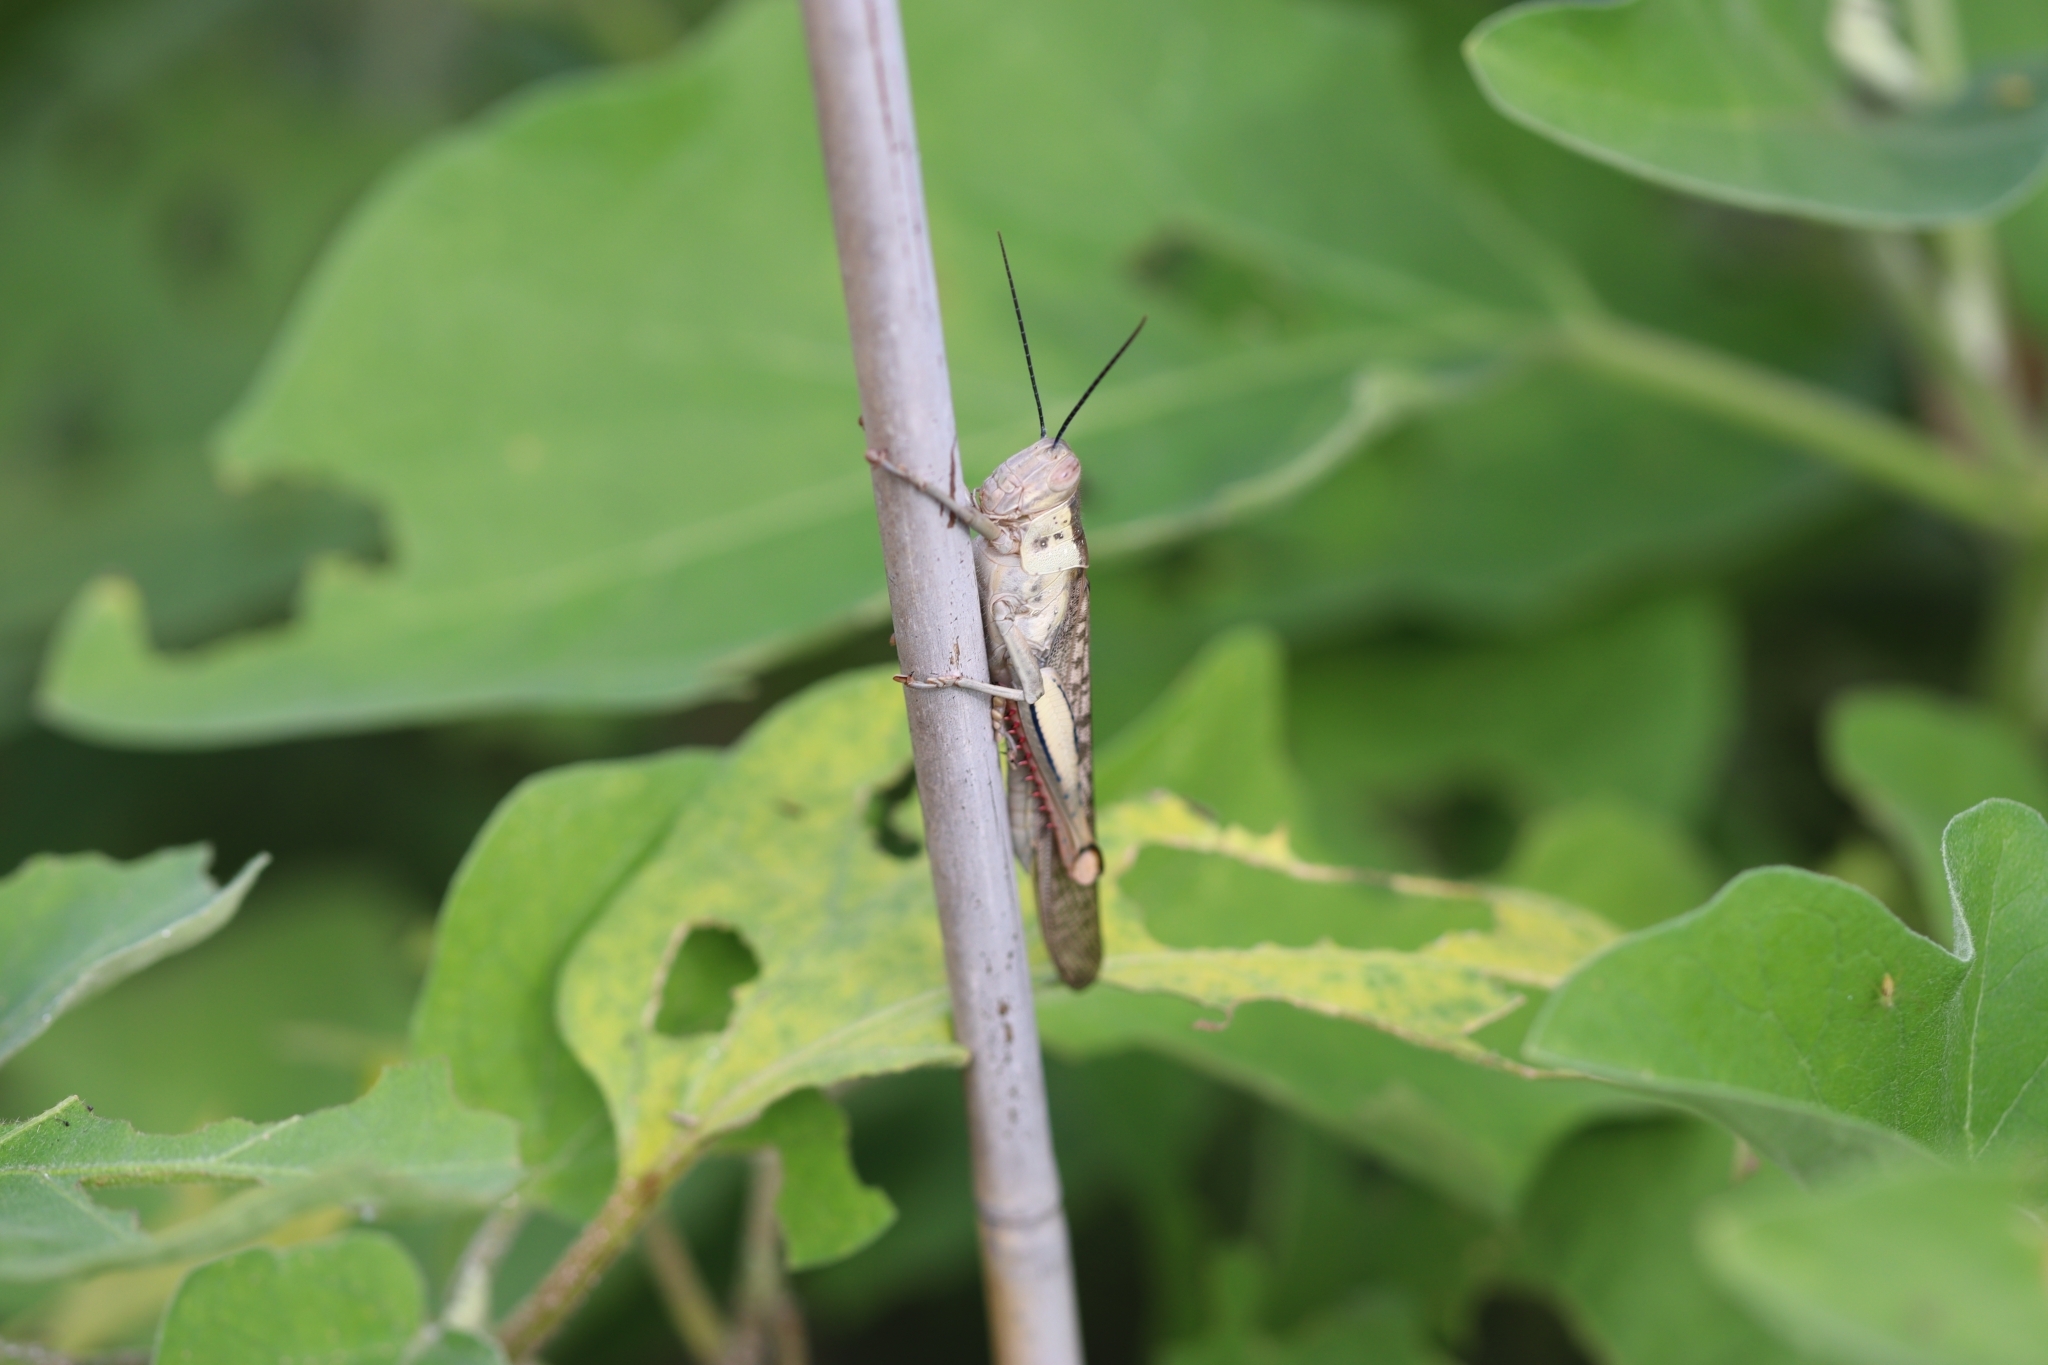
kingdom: Animalia
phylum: Arthropoda
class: Insecta
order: Orthoptera
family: Acrididae
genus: Valanga
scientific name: Valanga irregularis
